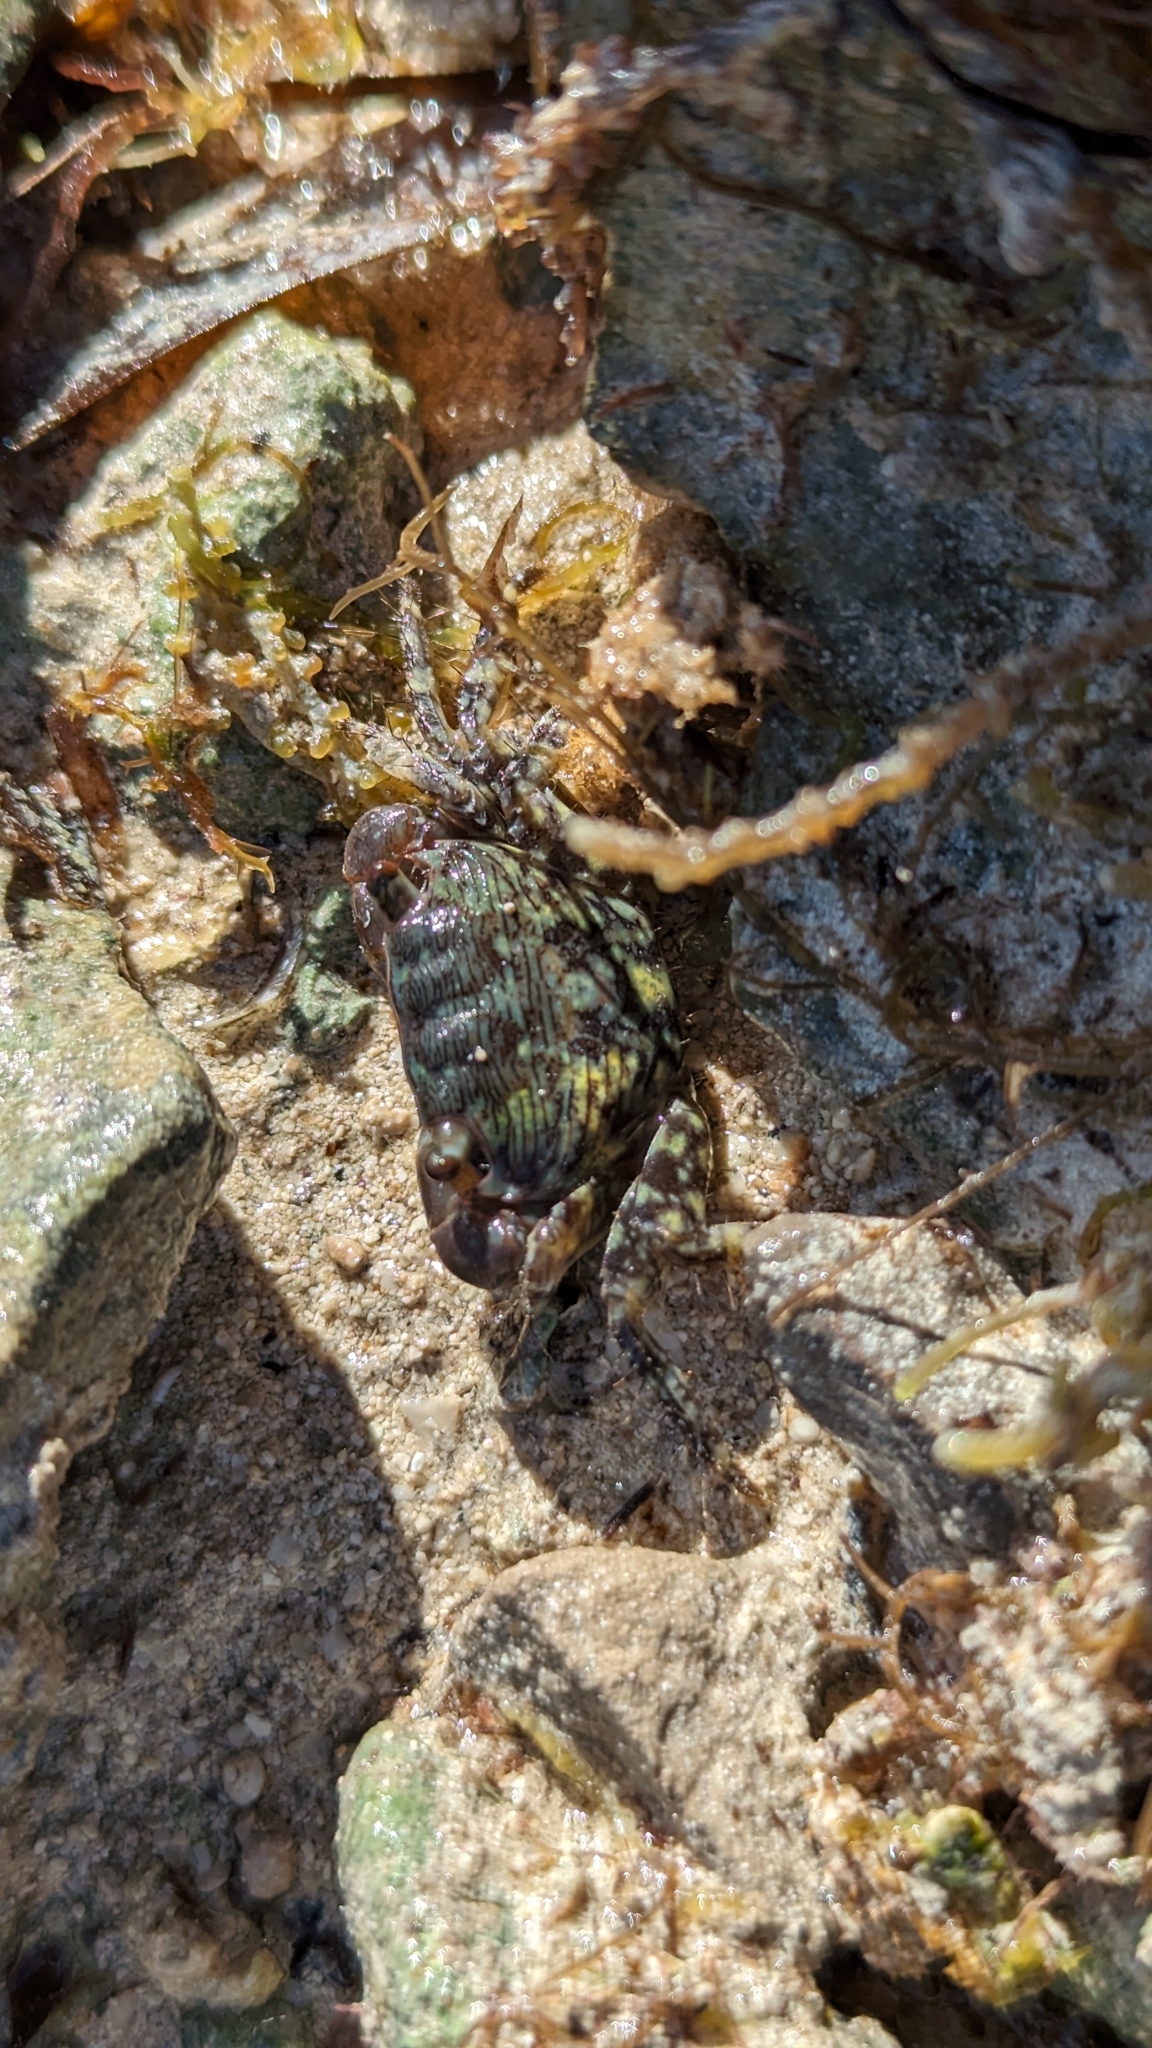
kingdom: Animalia
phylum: Arthropoda
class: Malacostraca
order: Decapoda
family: Grapsidae
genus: Pachygrapsus
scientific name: Pachygrapsus transversus
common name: Mottled shore crab
